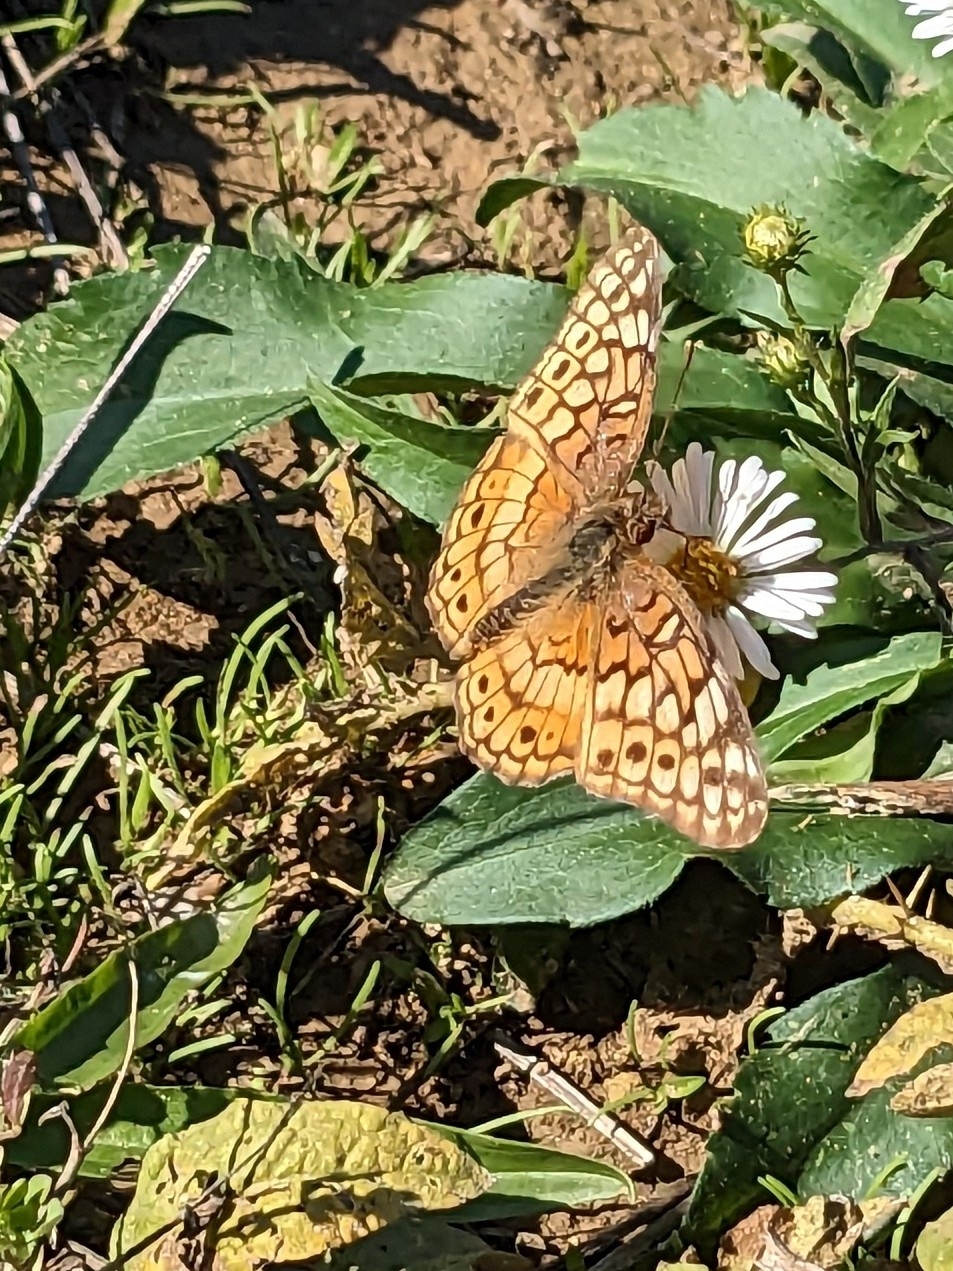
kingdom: Animalia
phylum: Arthropoda
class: Insecta
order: Lepidoptera
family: Nymphalidae
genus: Euptoieta
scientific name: Euptoieta claudia
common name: Variegated fritillary
